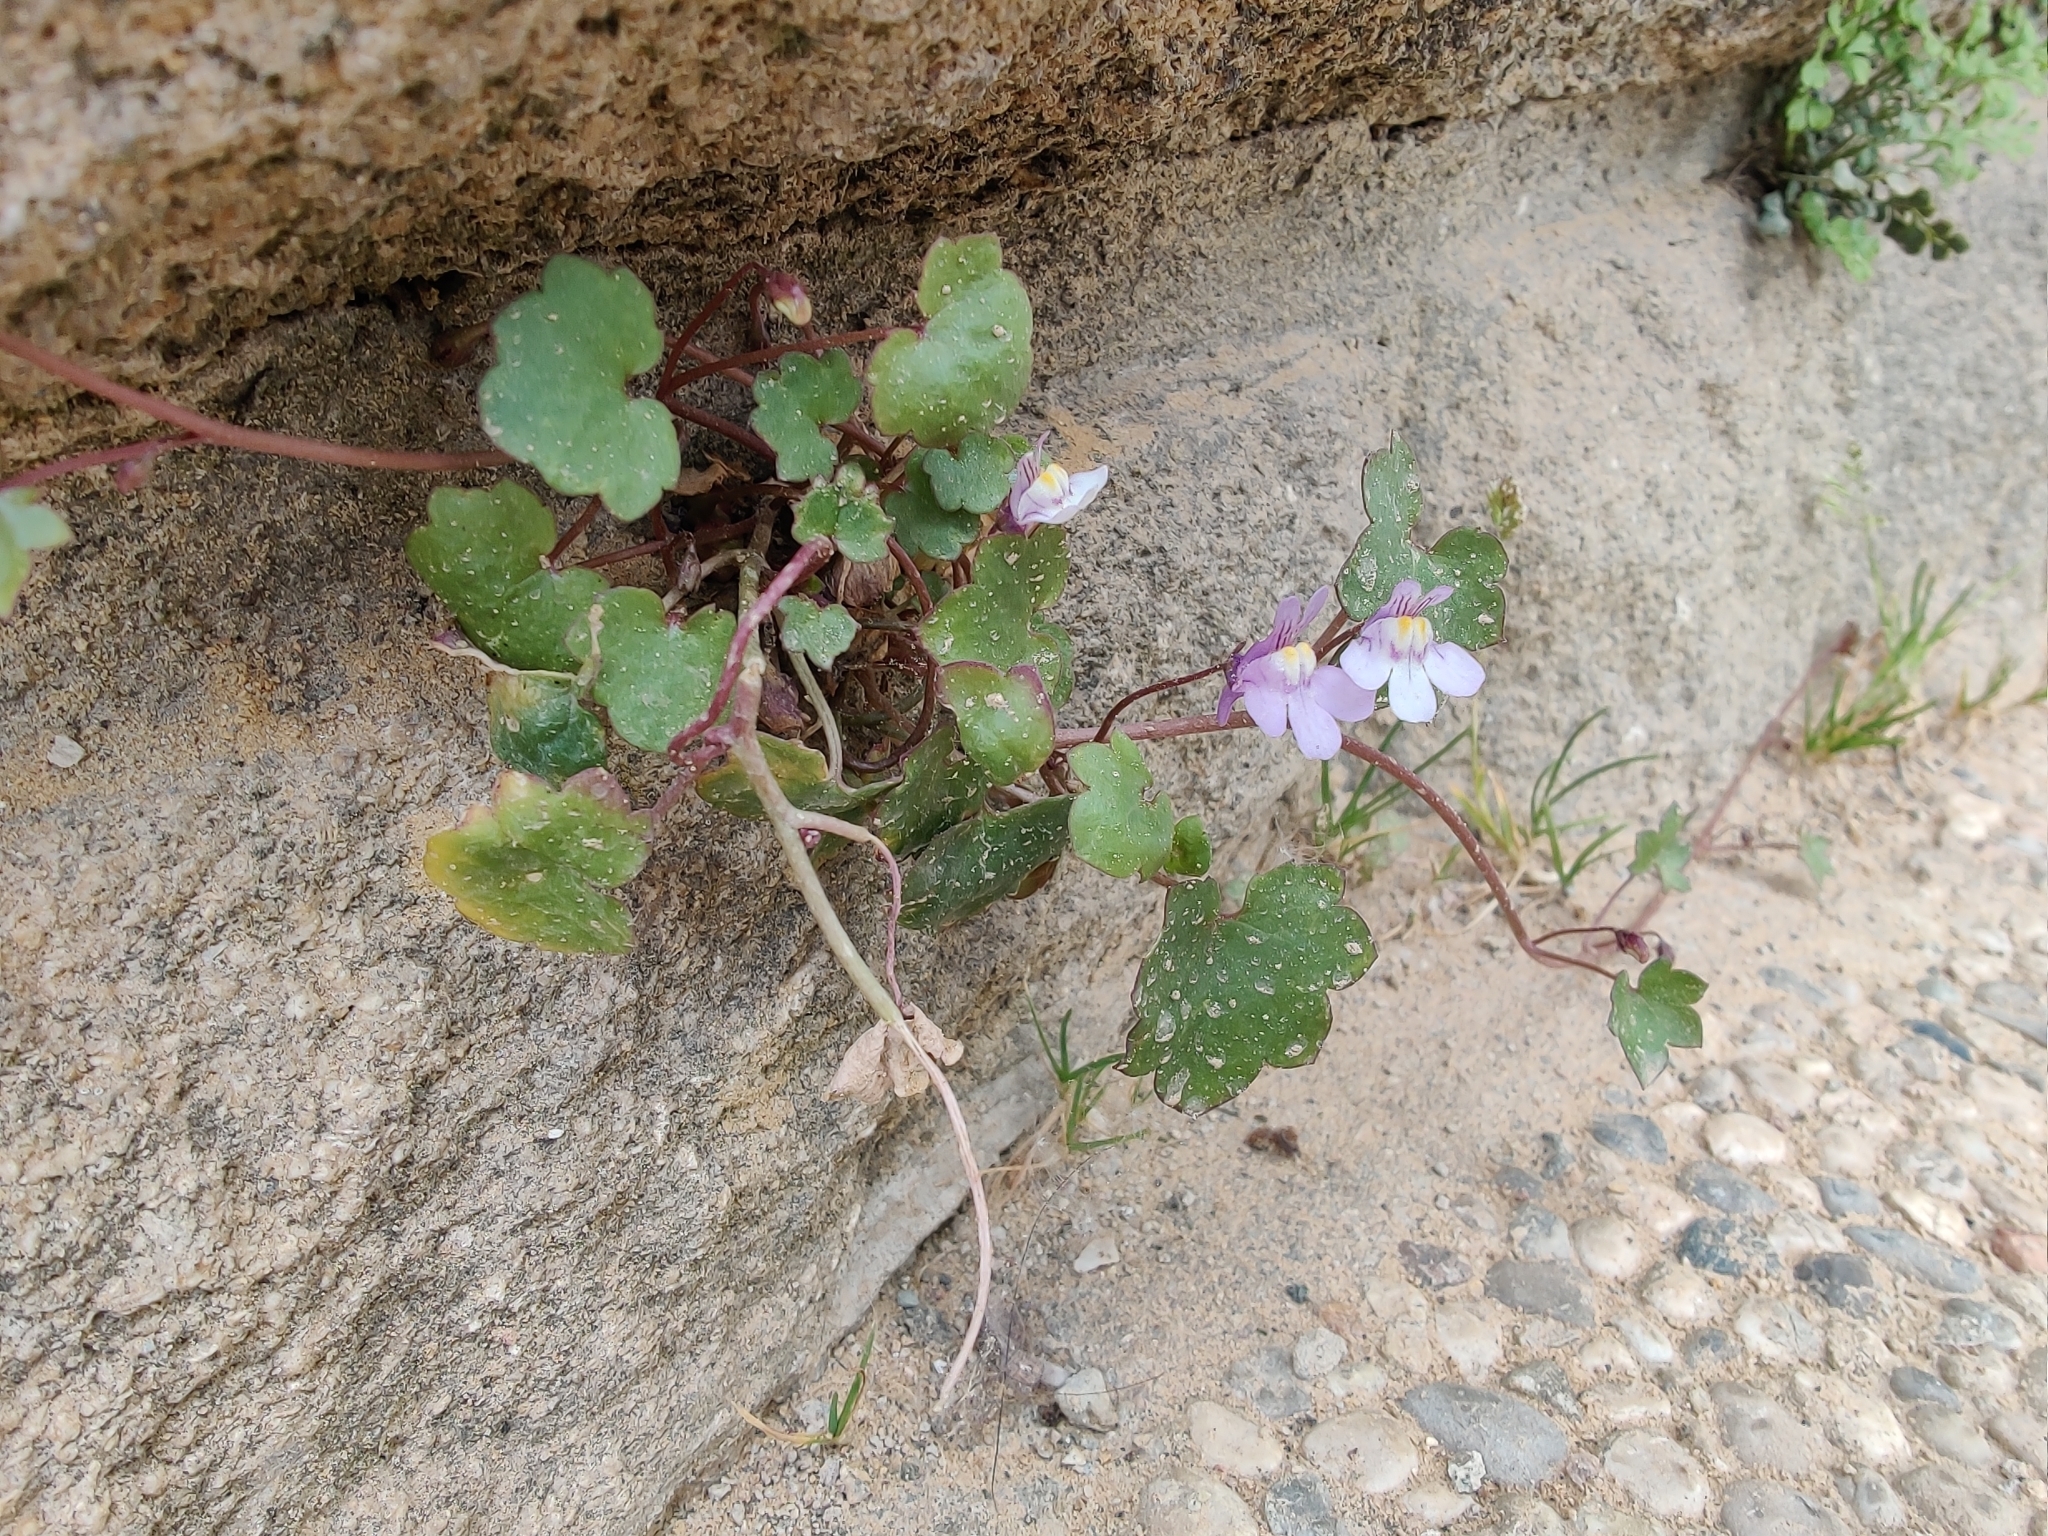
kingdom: Plantae
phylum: Tracheophyta
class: Magnoliopsida
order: Lamiales
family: Plantaginaceae
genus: Cymbalaria
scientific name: Cymbalaria muralis
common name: Ivy-leaved toadflax
